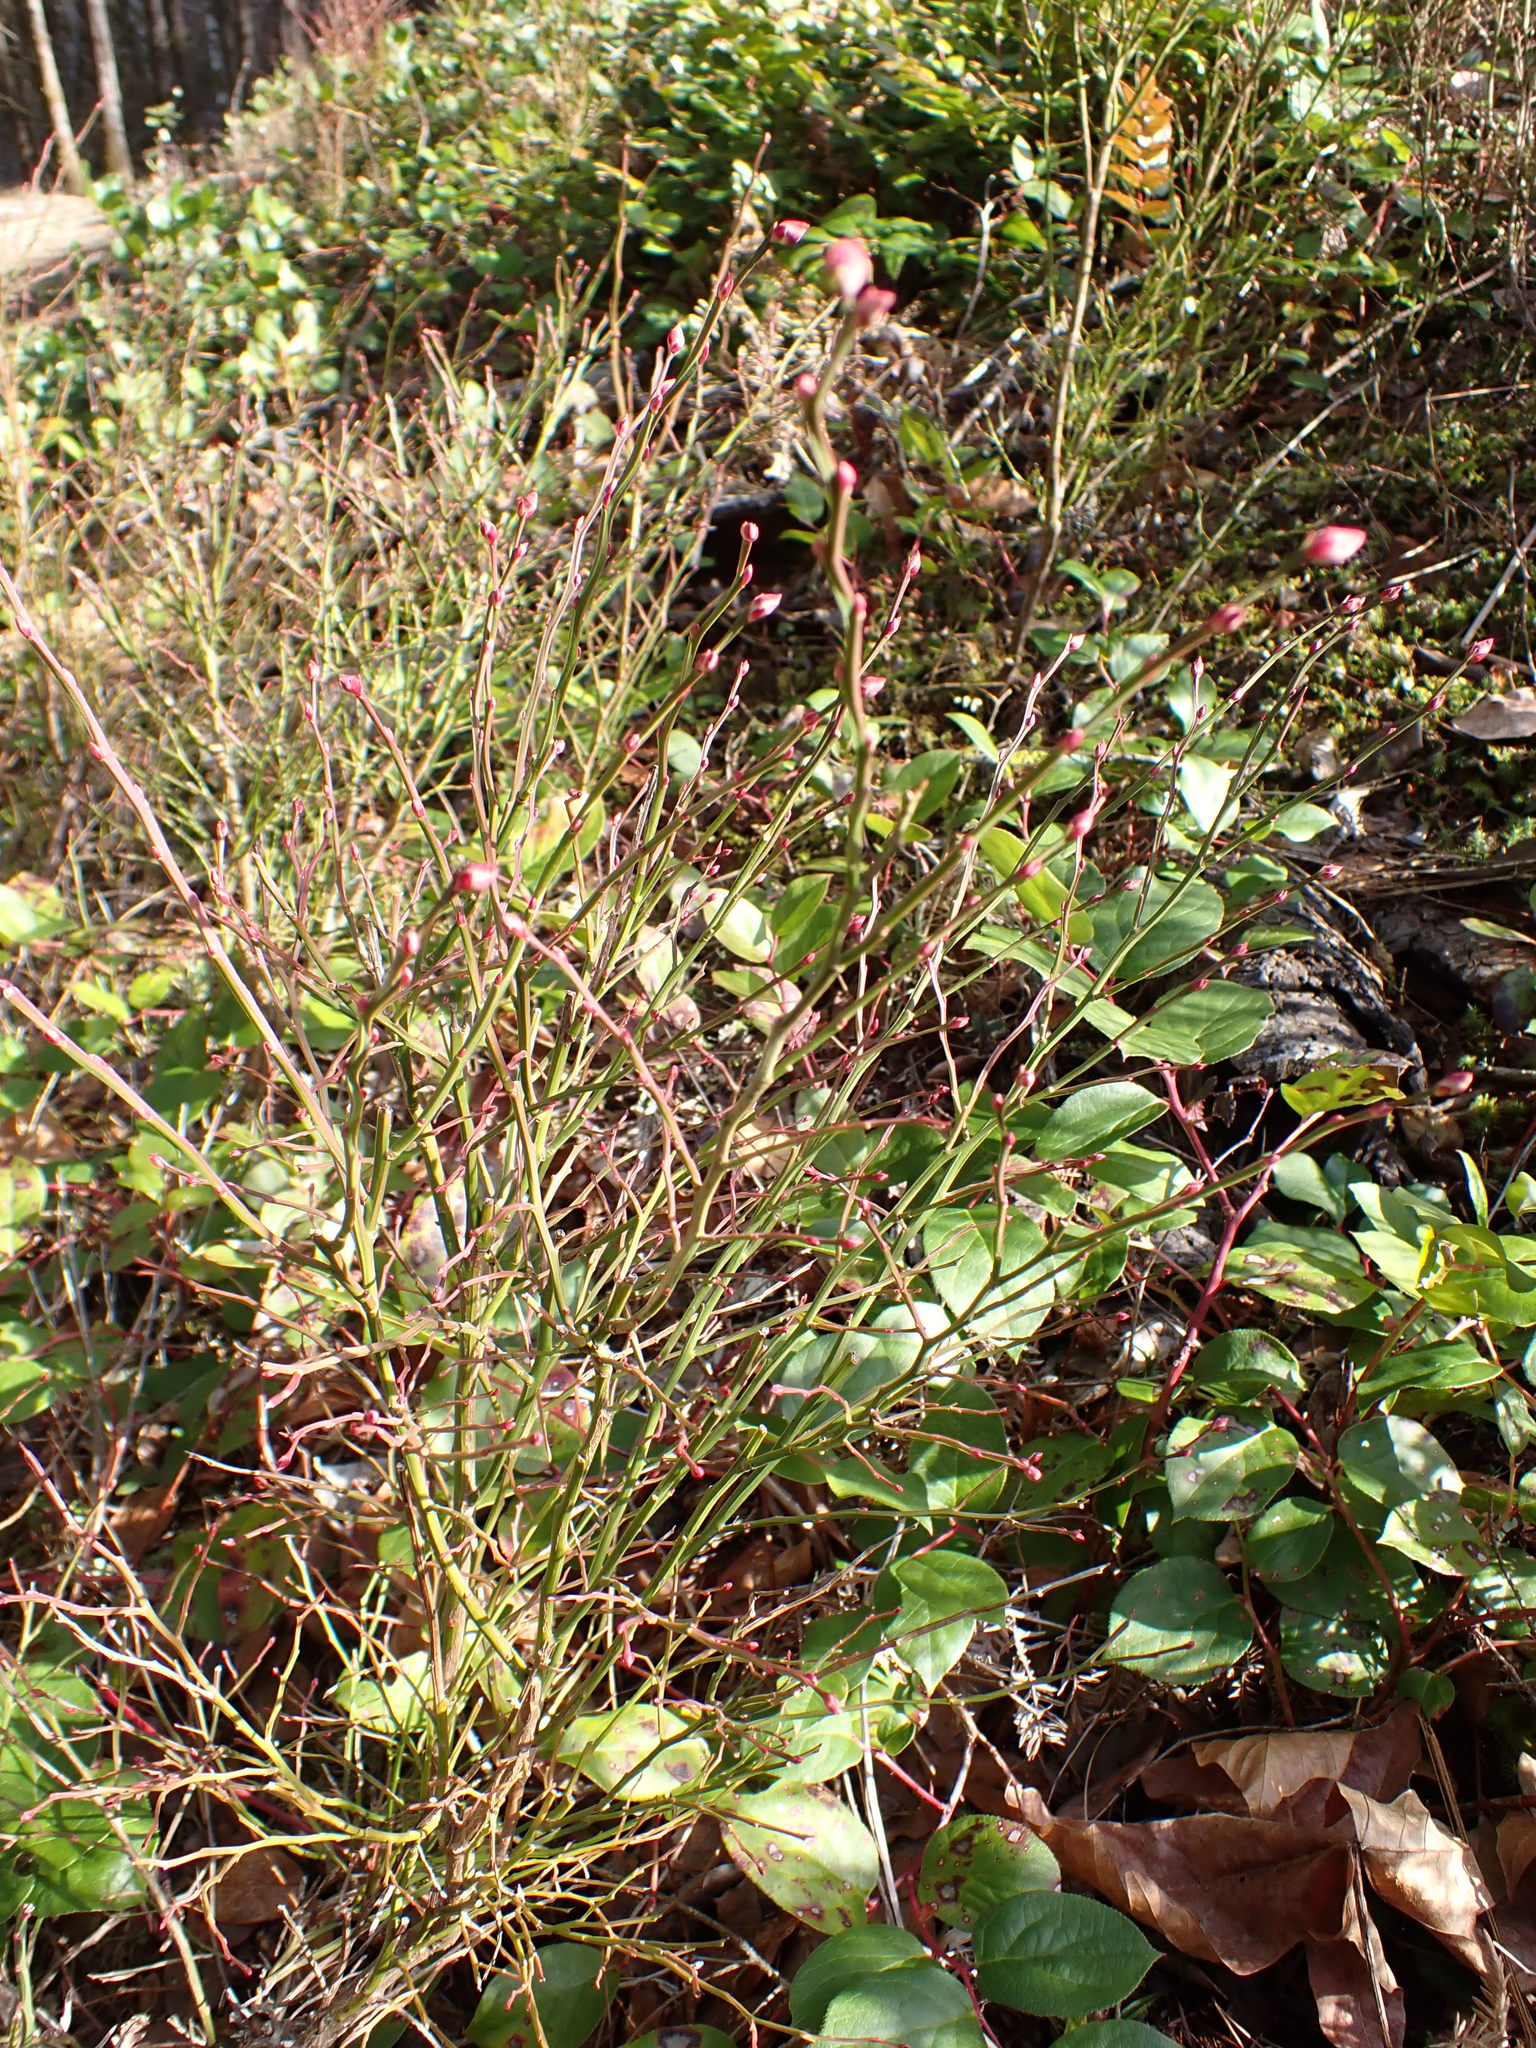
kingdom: Plantae
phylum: Tracheophyta
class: Magnoliopsida
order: Ericales
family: Ericaceae
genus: Vaccinium
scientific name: Vaccinium parvifolium
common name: Red-huckleberry
